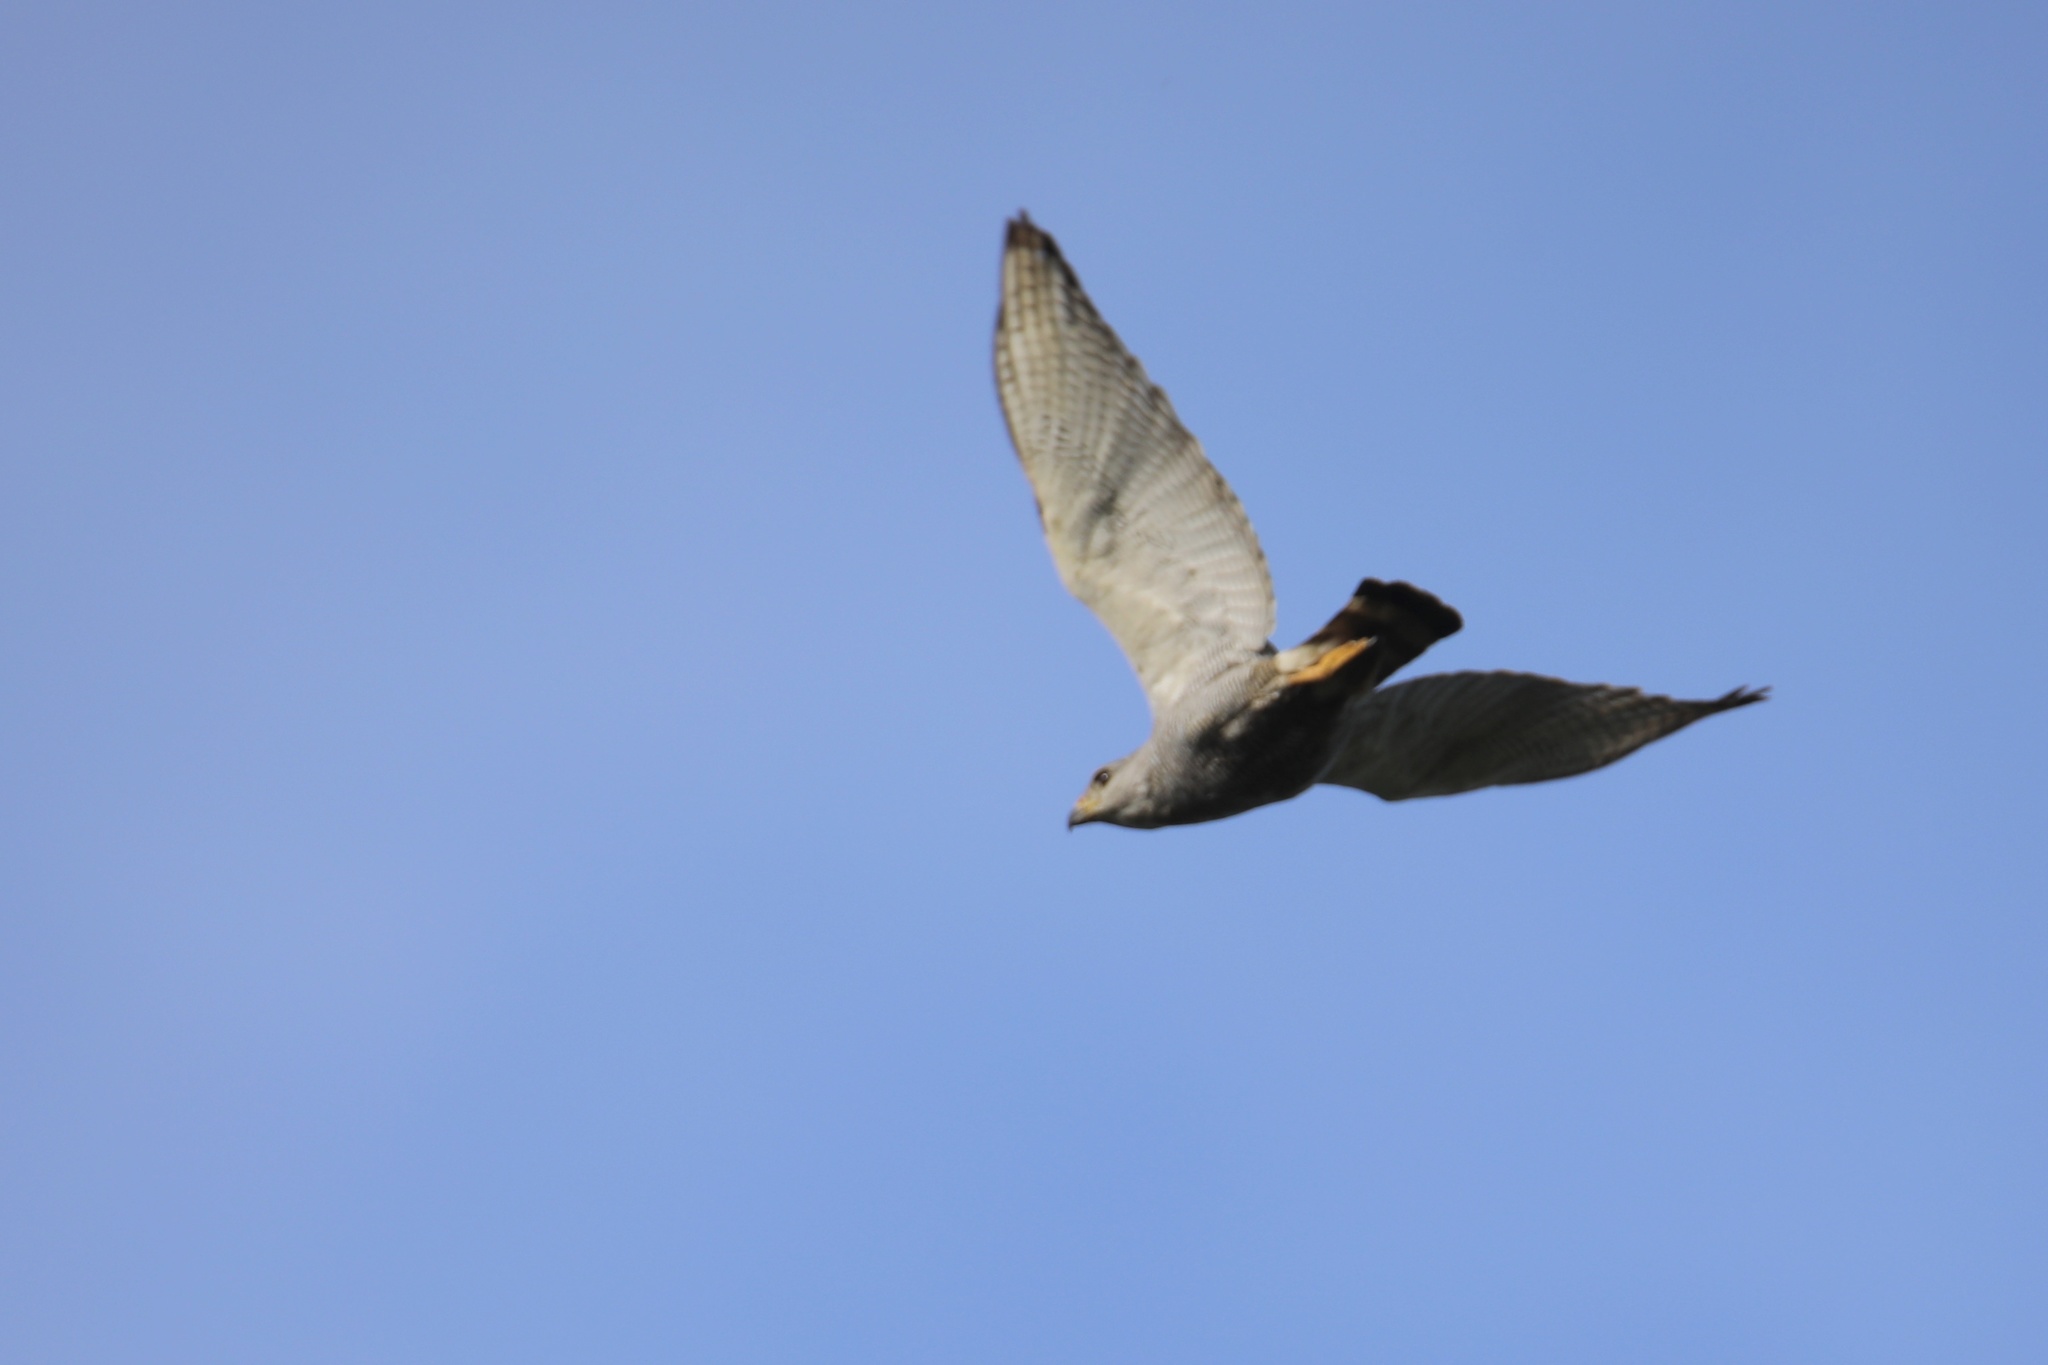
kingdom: Animalia
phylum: Chordata
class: Aves
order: Accipitriformes
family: Accipitridae
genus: Buteo
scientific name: Buteo nitidus
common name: Grey-lined hawk
